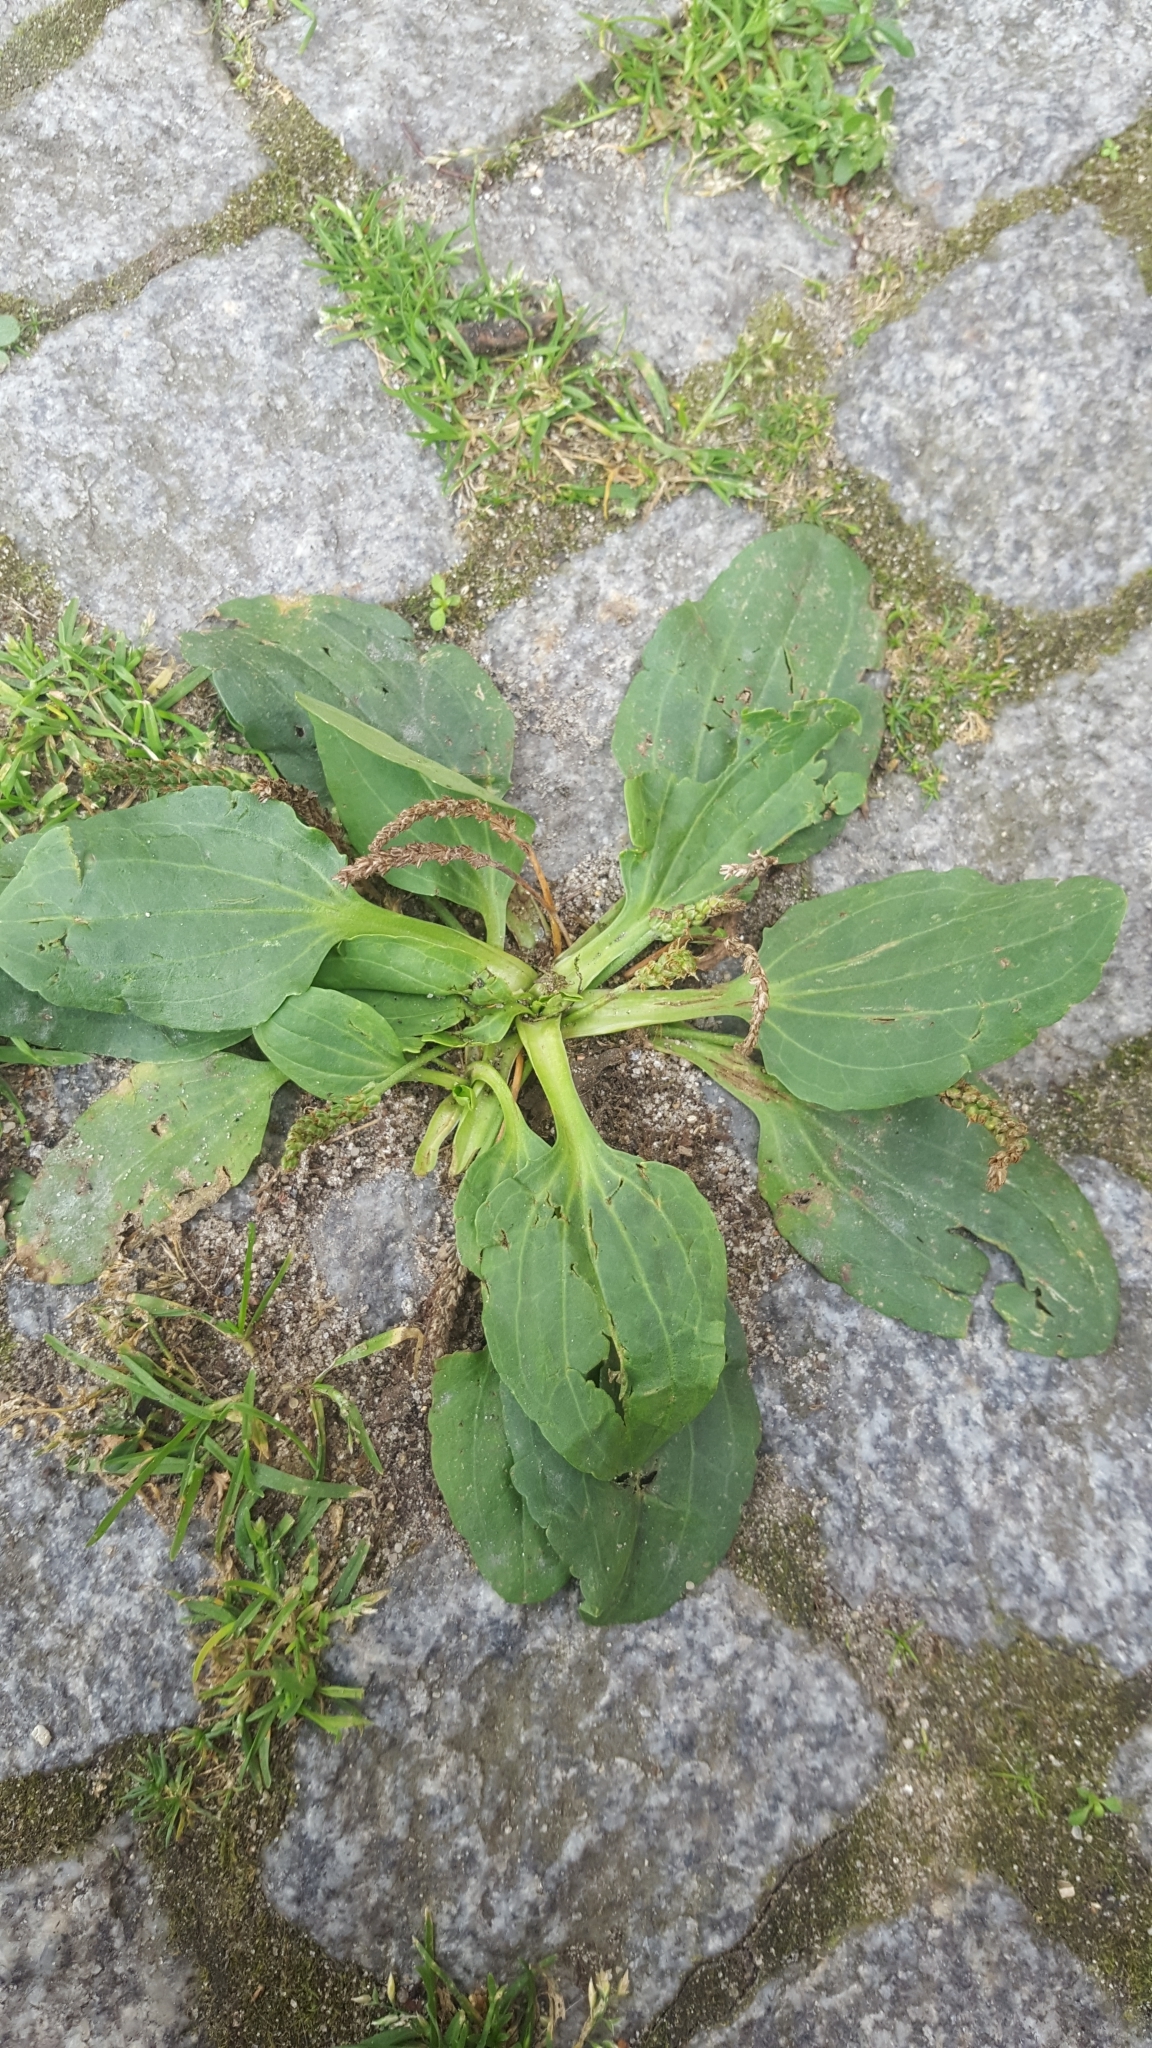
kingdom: Plantae
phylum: Tracheophyta
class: Magnoliopsida
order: Lamiales
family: Plantaginaceae
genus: Plantago
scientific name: Plantago major
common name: Common plantain
